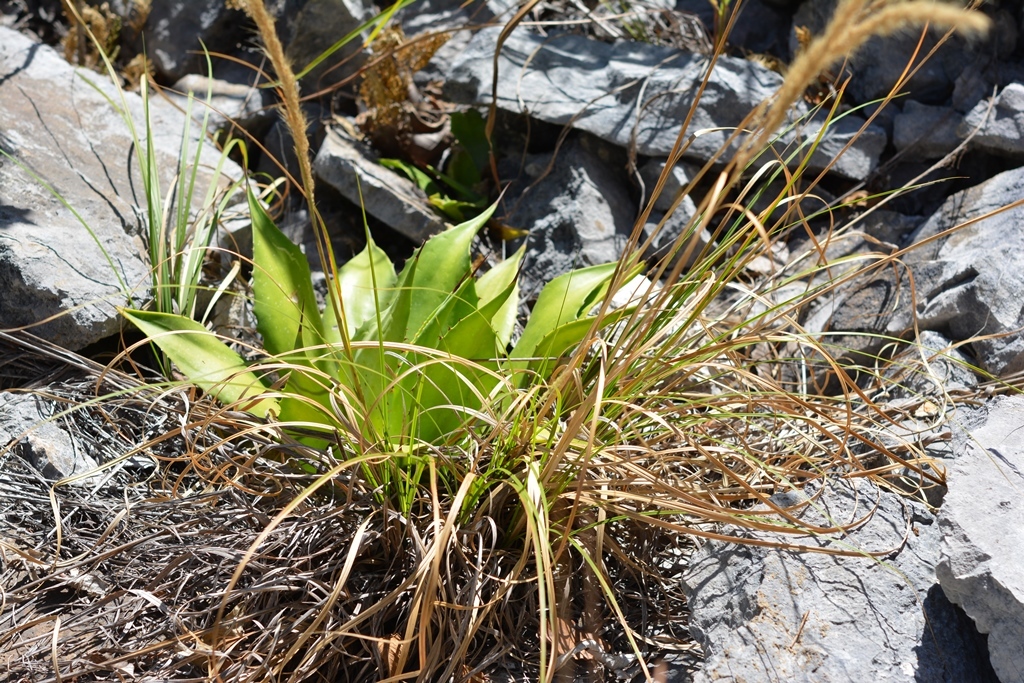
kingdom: Plantae
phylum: Tracheophyta
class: Liliopsida
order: Asparagales
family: Asparagaceae
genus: Agave
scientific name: Agave hiemiflora
